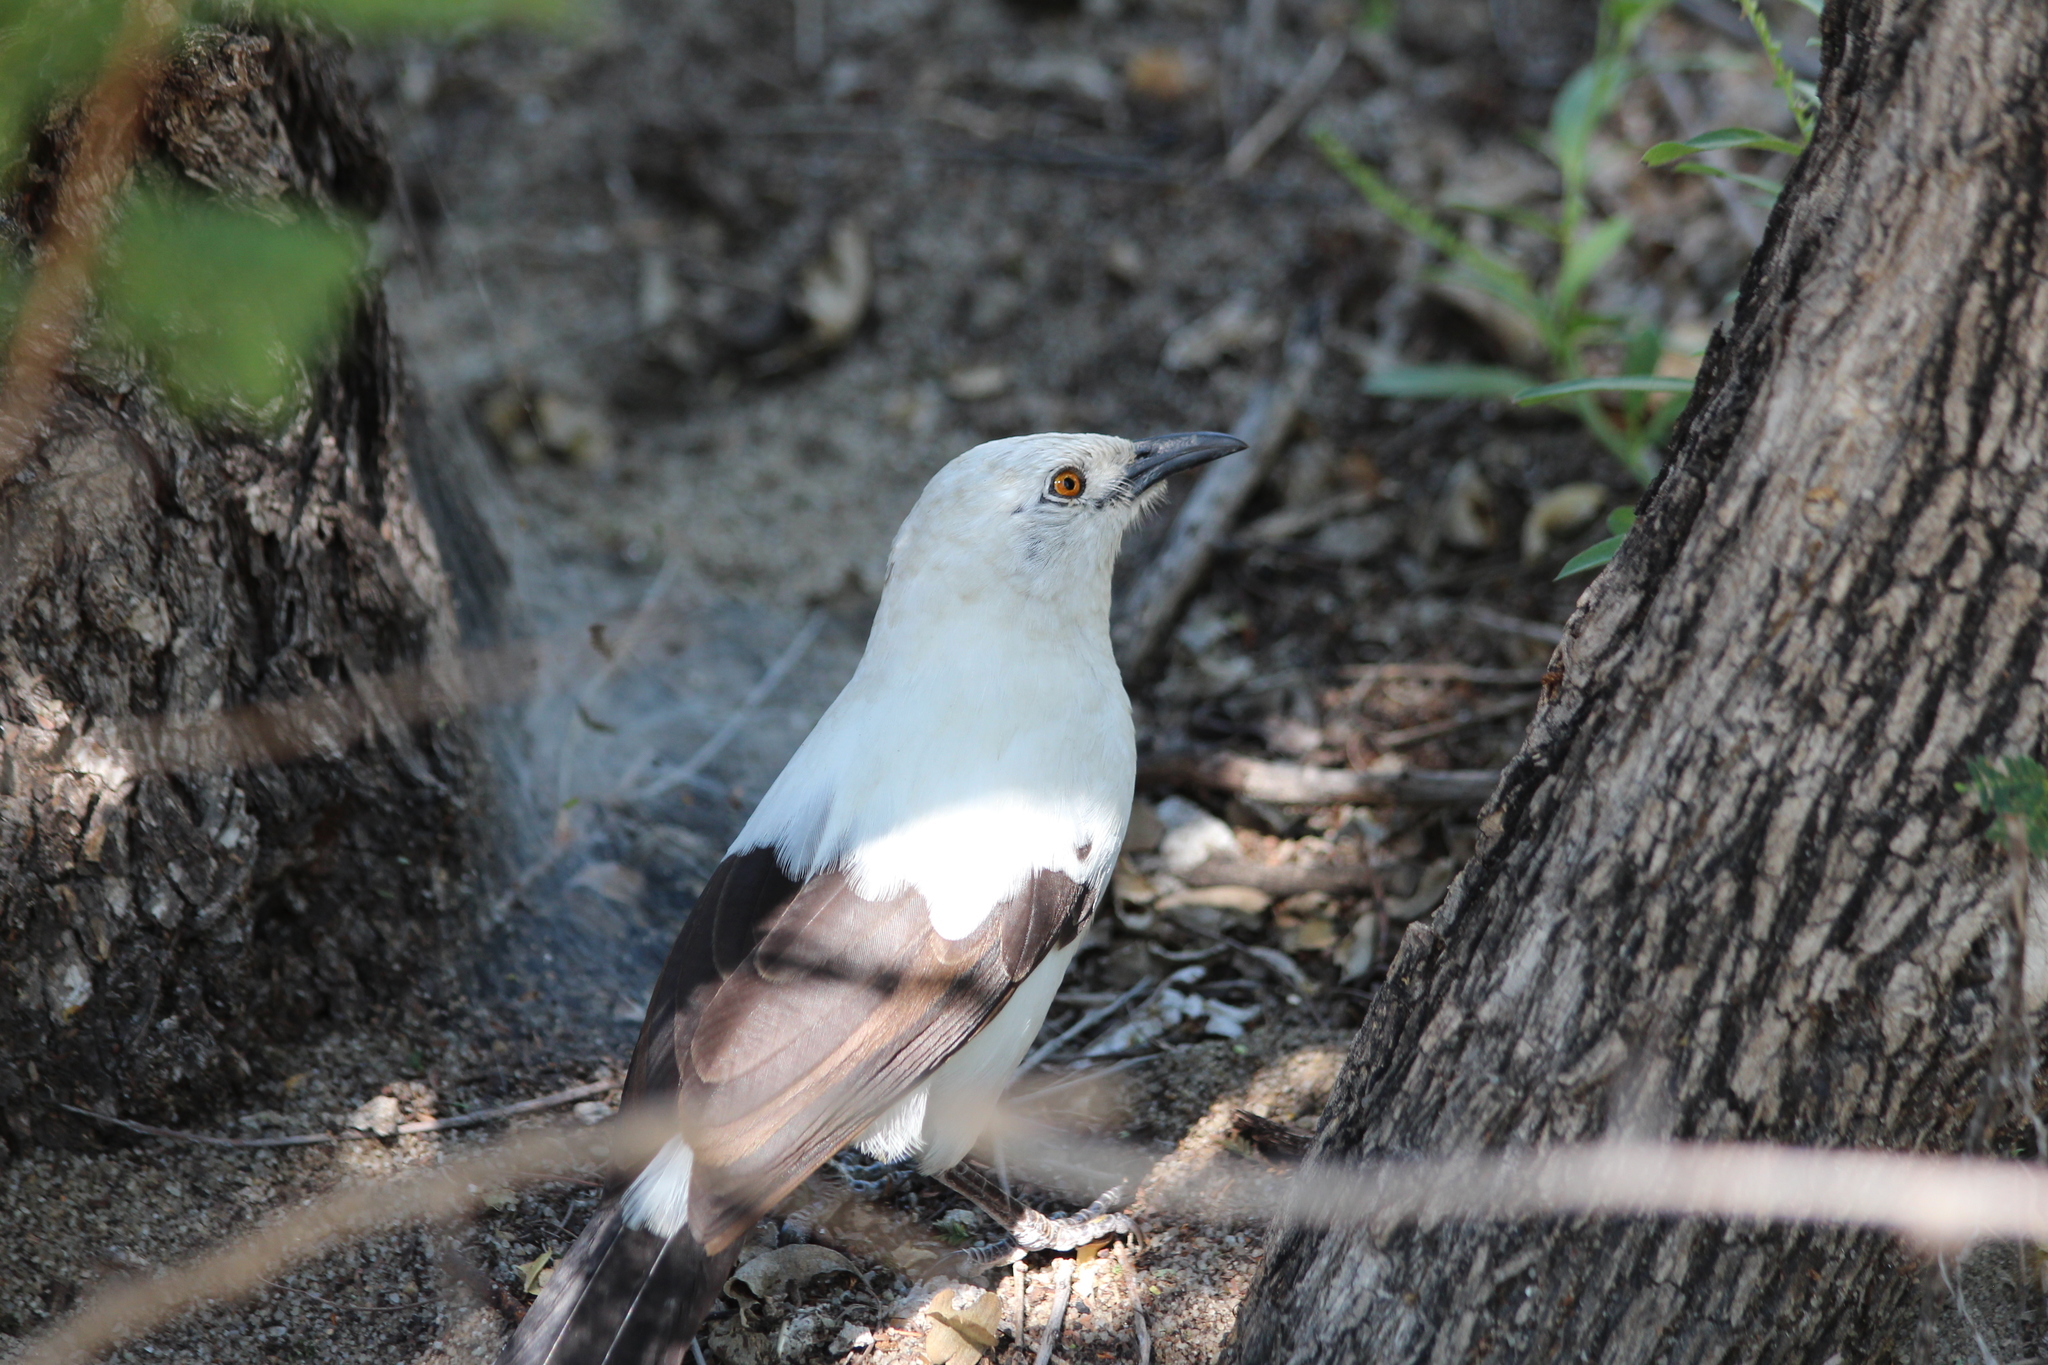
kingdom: Animalia
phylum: Chordata
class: Aves
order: Passeriformes
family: Leiothrichidae
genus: Turdoides
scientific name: Turdoides bicolor
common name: Southern pied babbler
